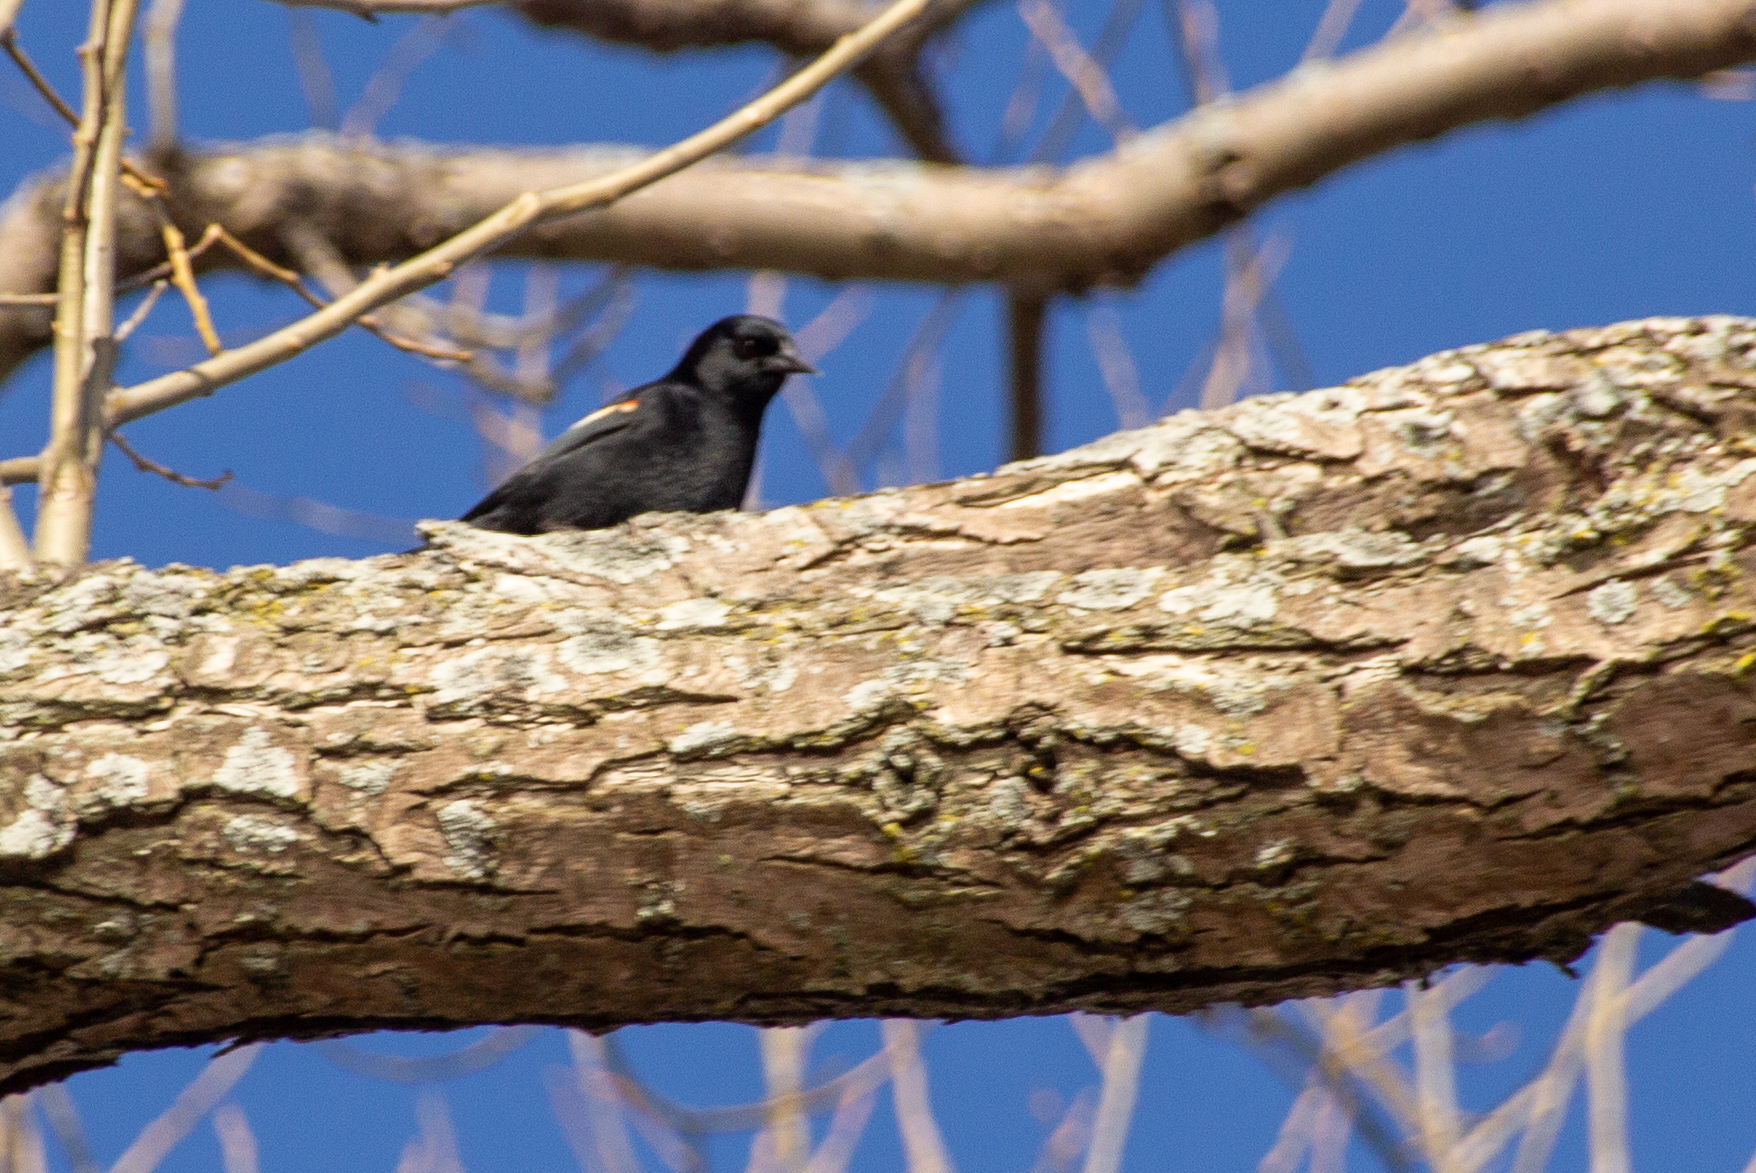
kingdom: Animalia
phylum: Chordata
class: Aves
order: Passeriformes
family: Icteridae
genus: Agelaius
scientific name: Agelaius phoeniceus
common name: Red-winged blackbird
